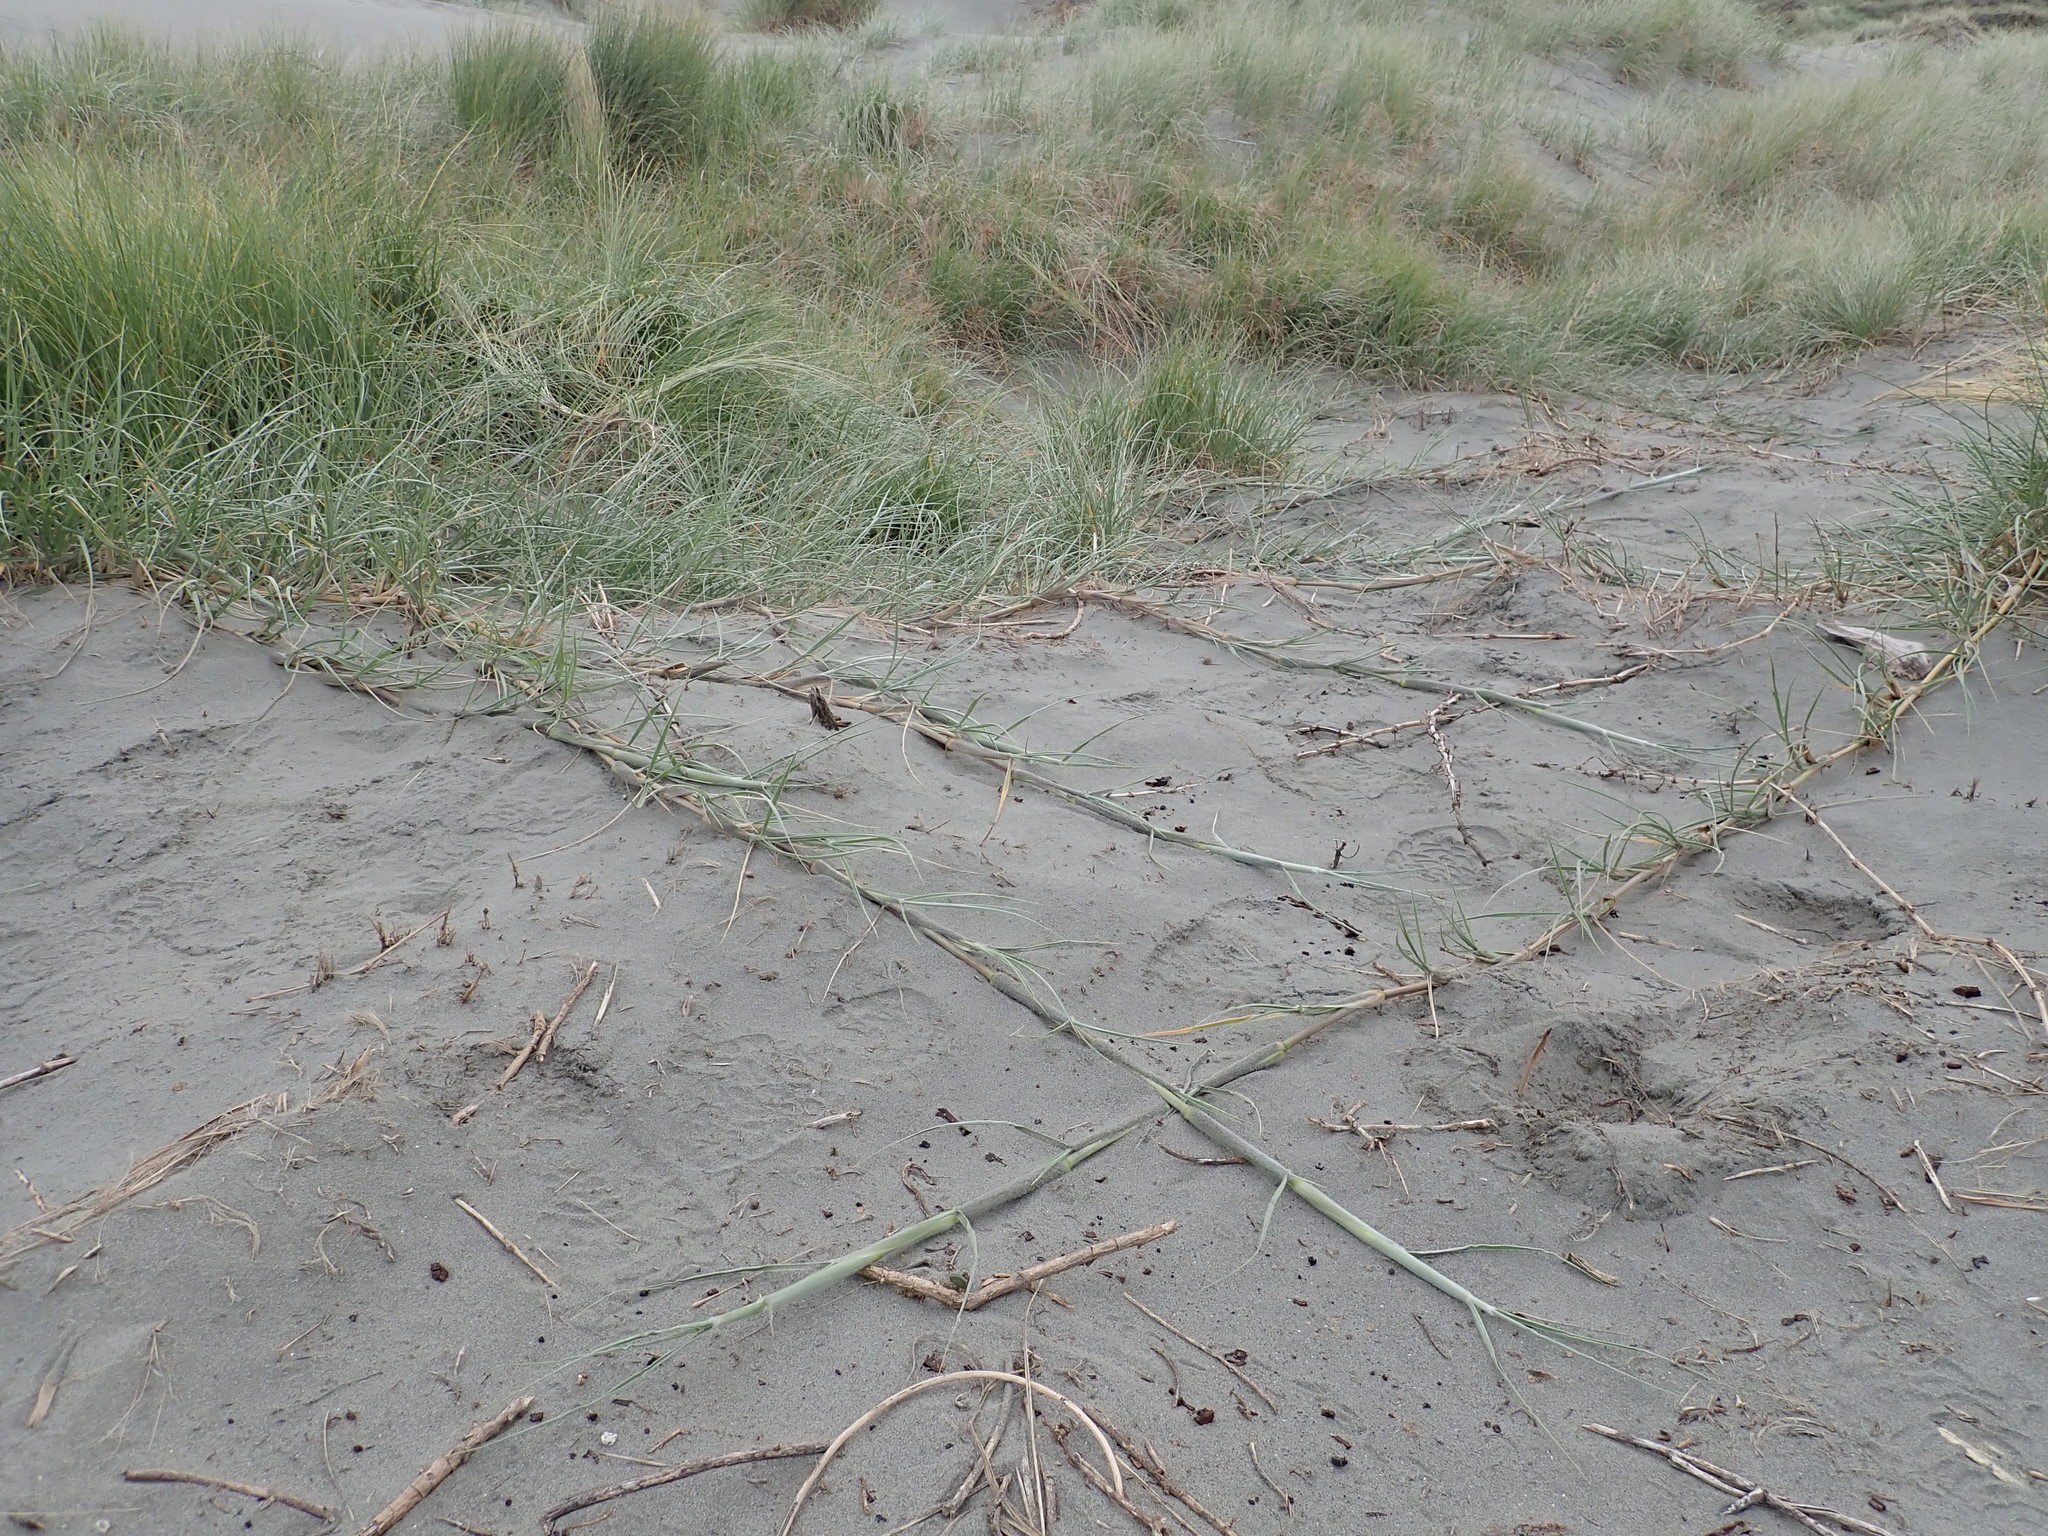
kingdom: Plantae
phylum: Tracheophyta
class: Liliopsida
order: Poales
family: Poaceae
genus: Spinifex
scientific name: Spinifex sericeus
